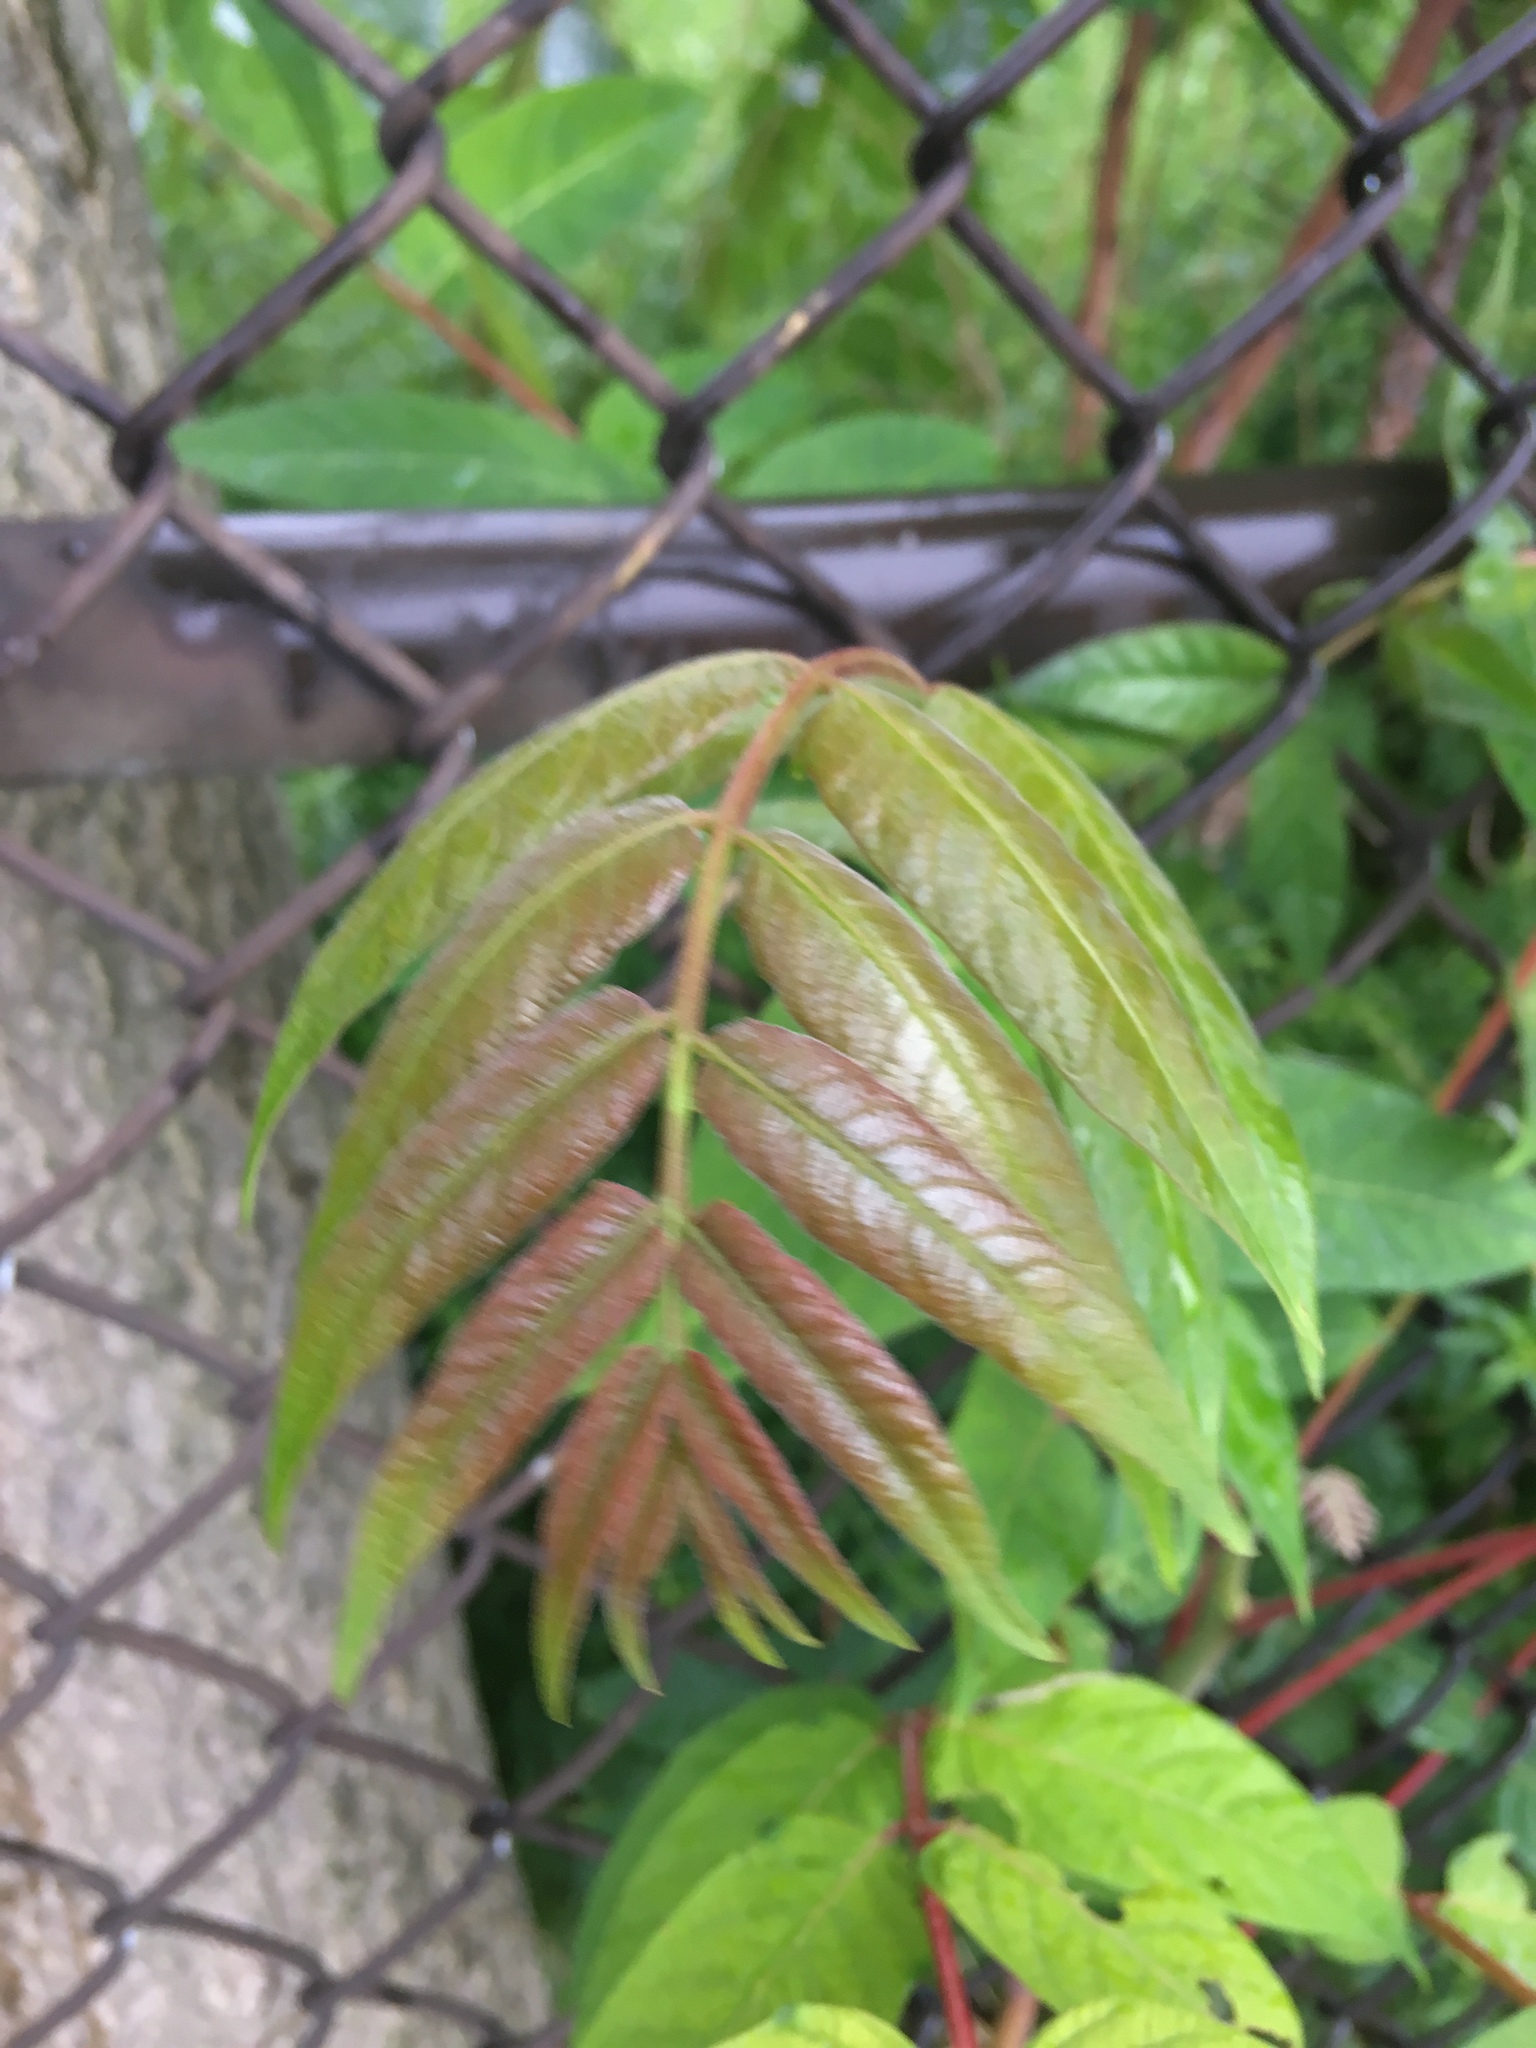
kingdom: Plantae
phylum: Tracheophyta
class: Magnoliopsida
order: Sapindales
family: Simaroubaceae
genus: Ailanthus
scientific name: Ailanthus altissima
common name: Tree-of-heaven
